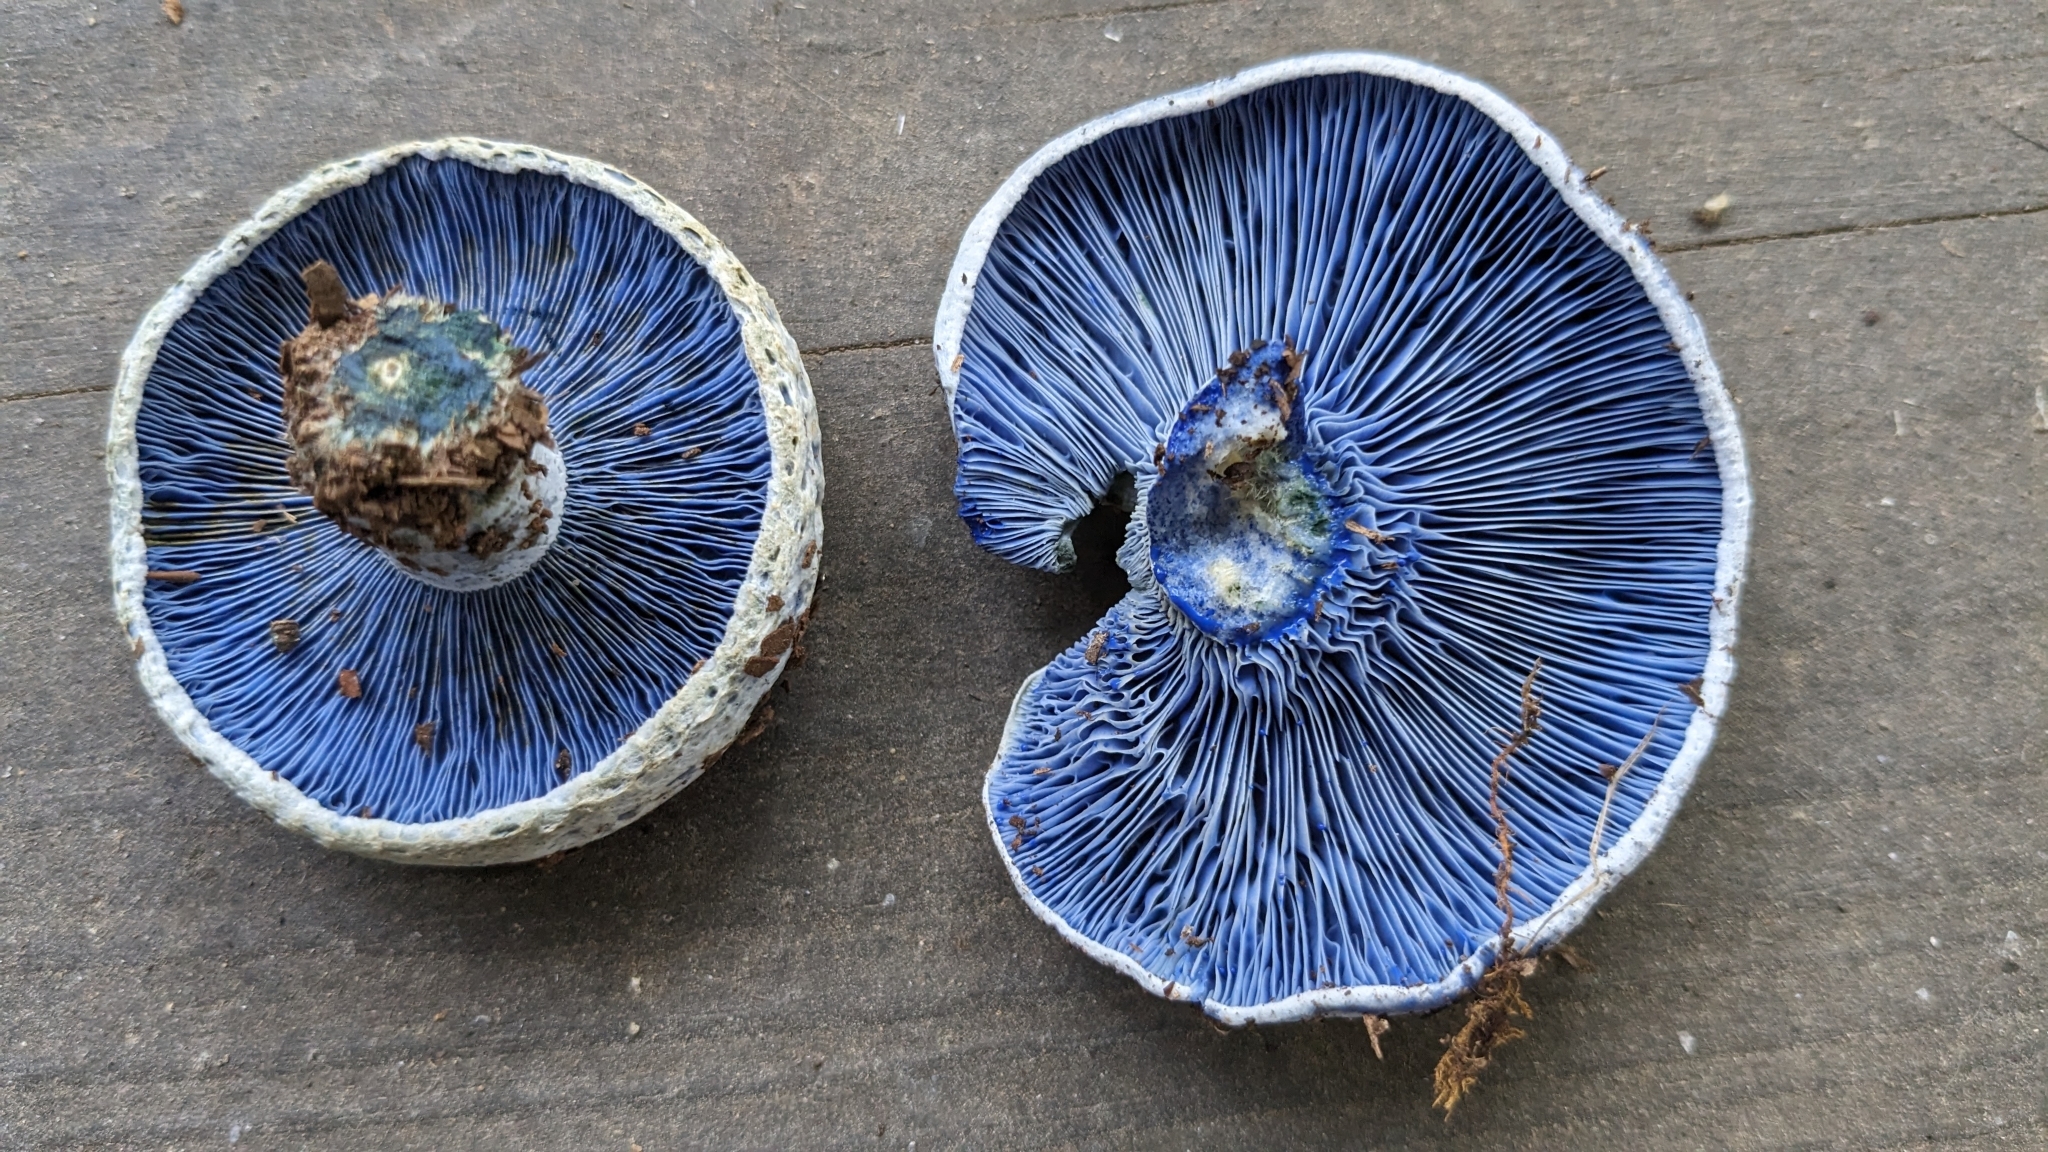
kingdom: Fungi
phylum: Basidiomycota
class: Agaricomycetes
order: Russulales
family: Russulaceae
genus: Lactarius
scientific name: Lactarius indigo
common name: Indigo milk cap
